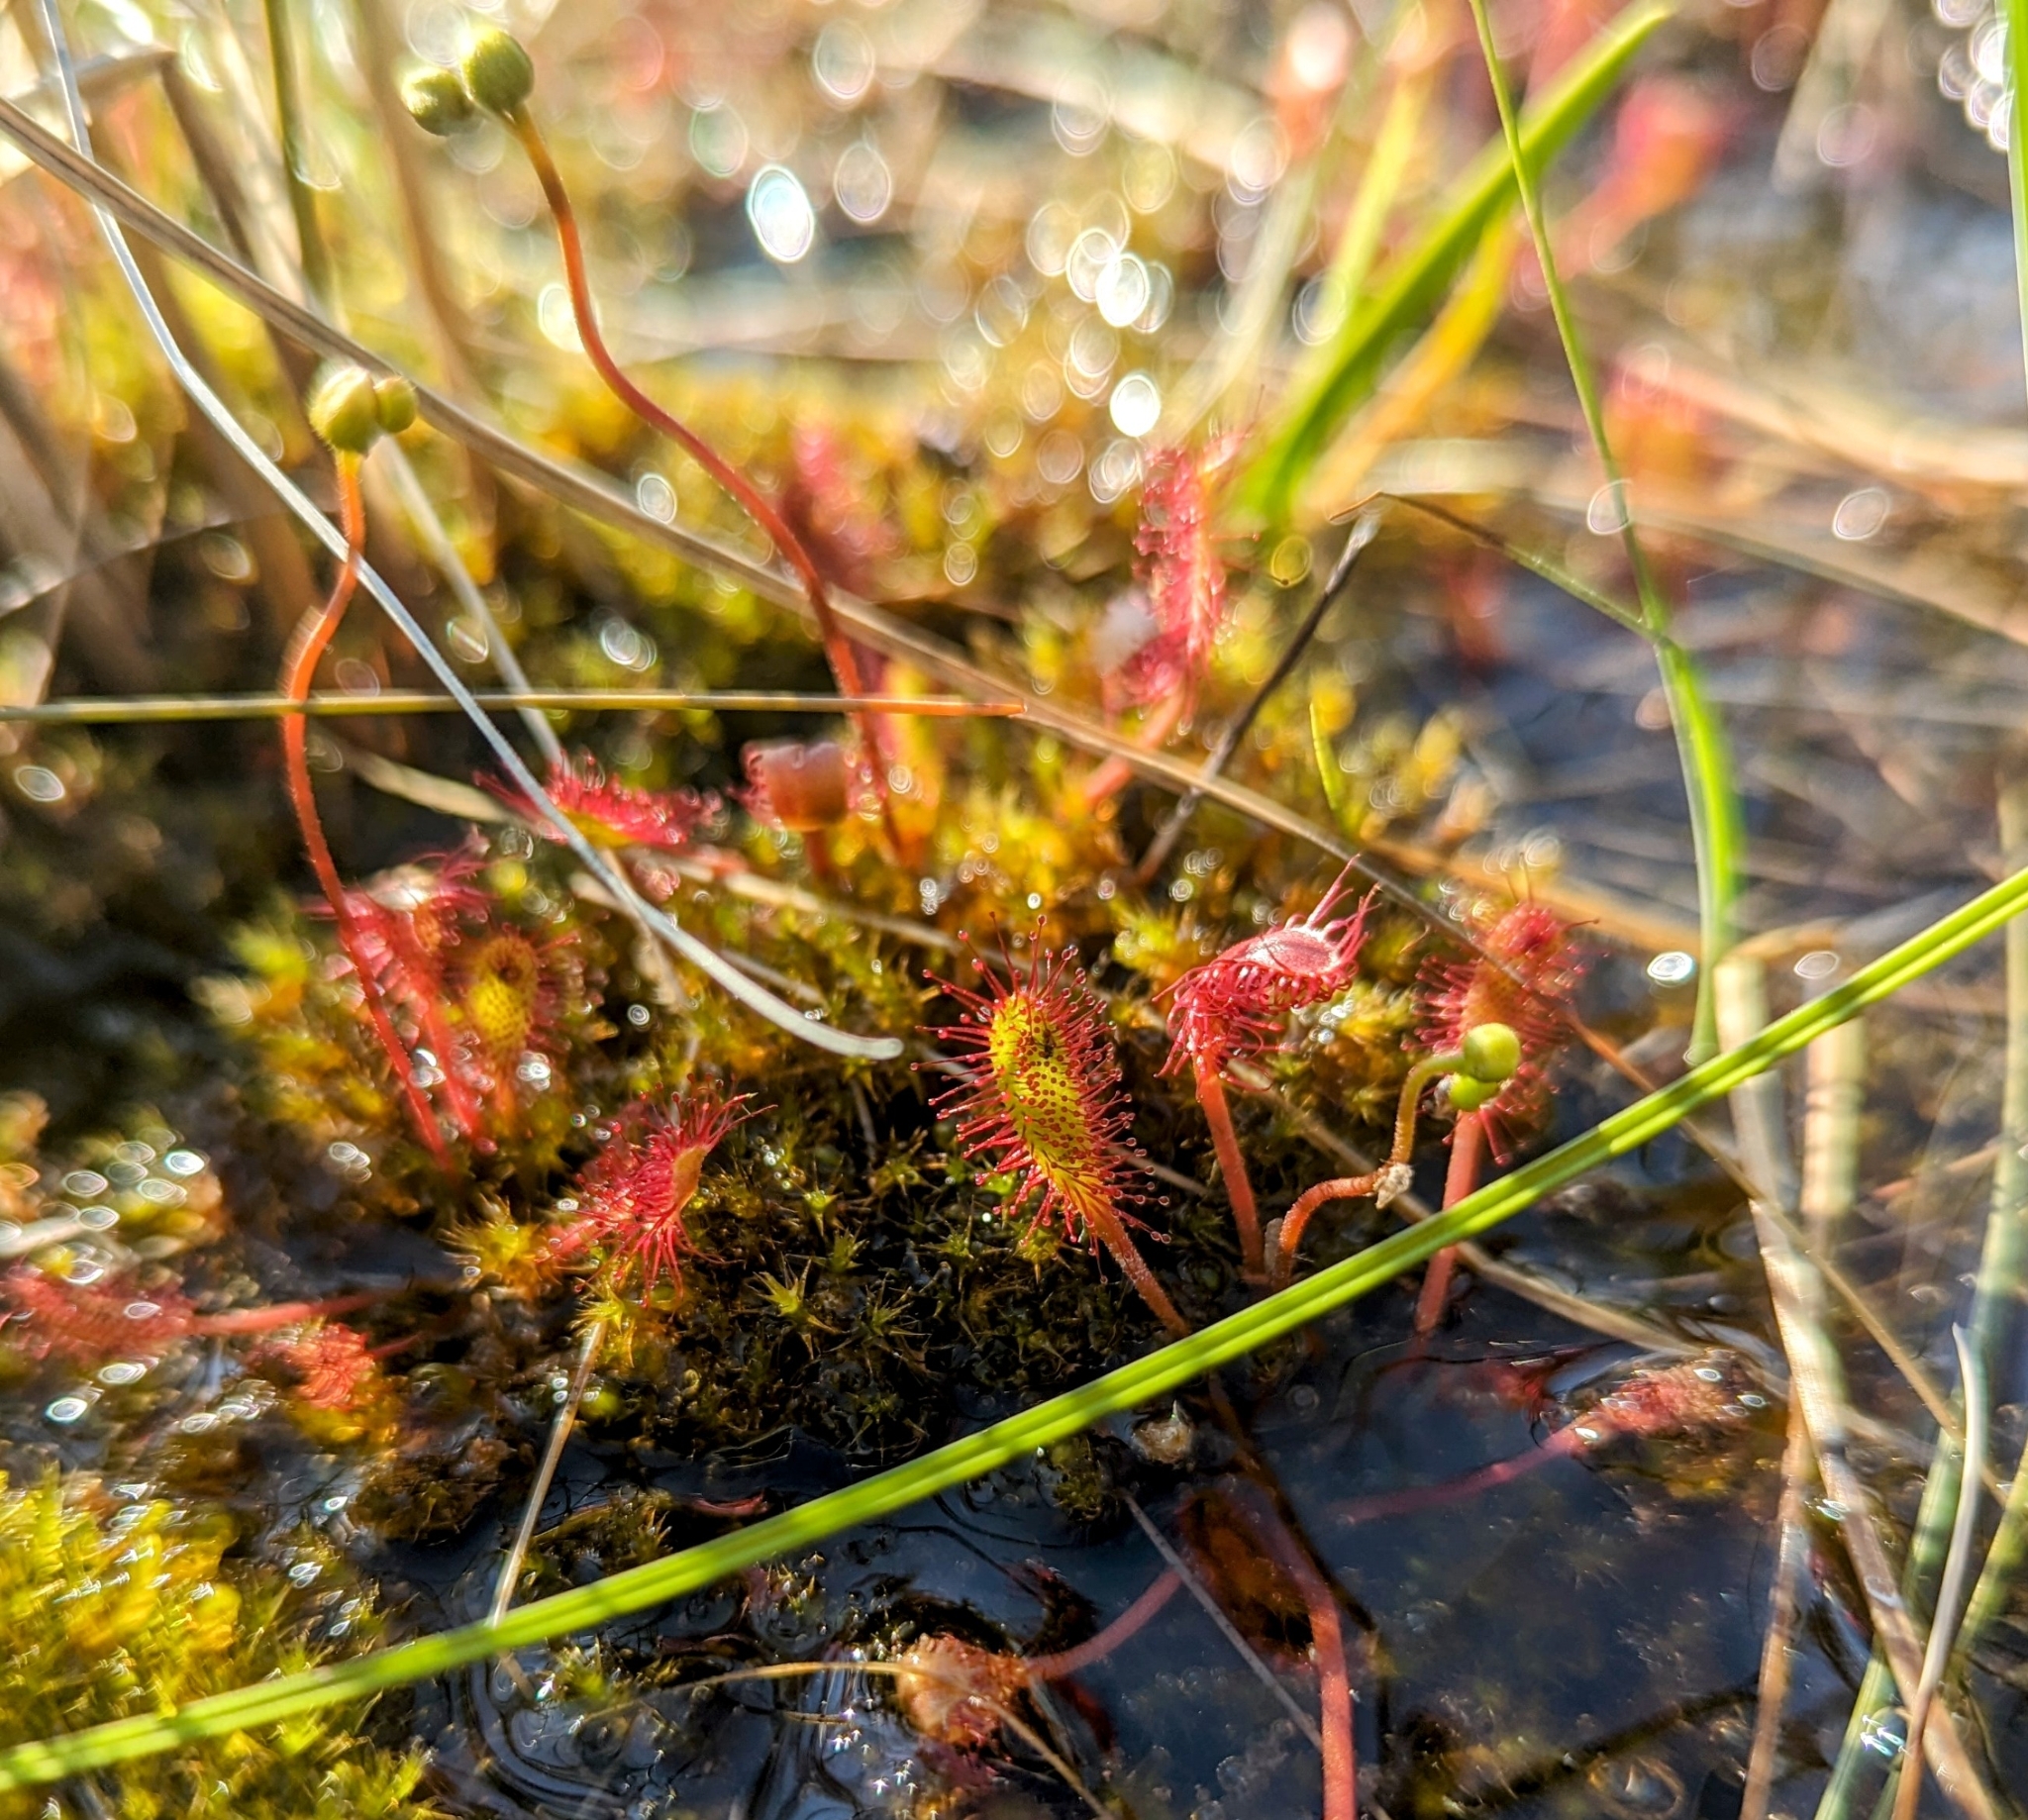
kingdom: Plantae
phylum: Tracheophyta
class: Magnoliopsida
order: Caryophyllales
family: Droseraceae
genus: Drosera
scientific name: Drosera anglica
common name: Great sundew
